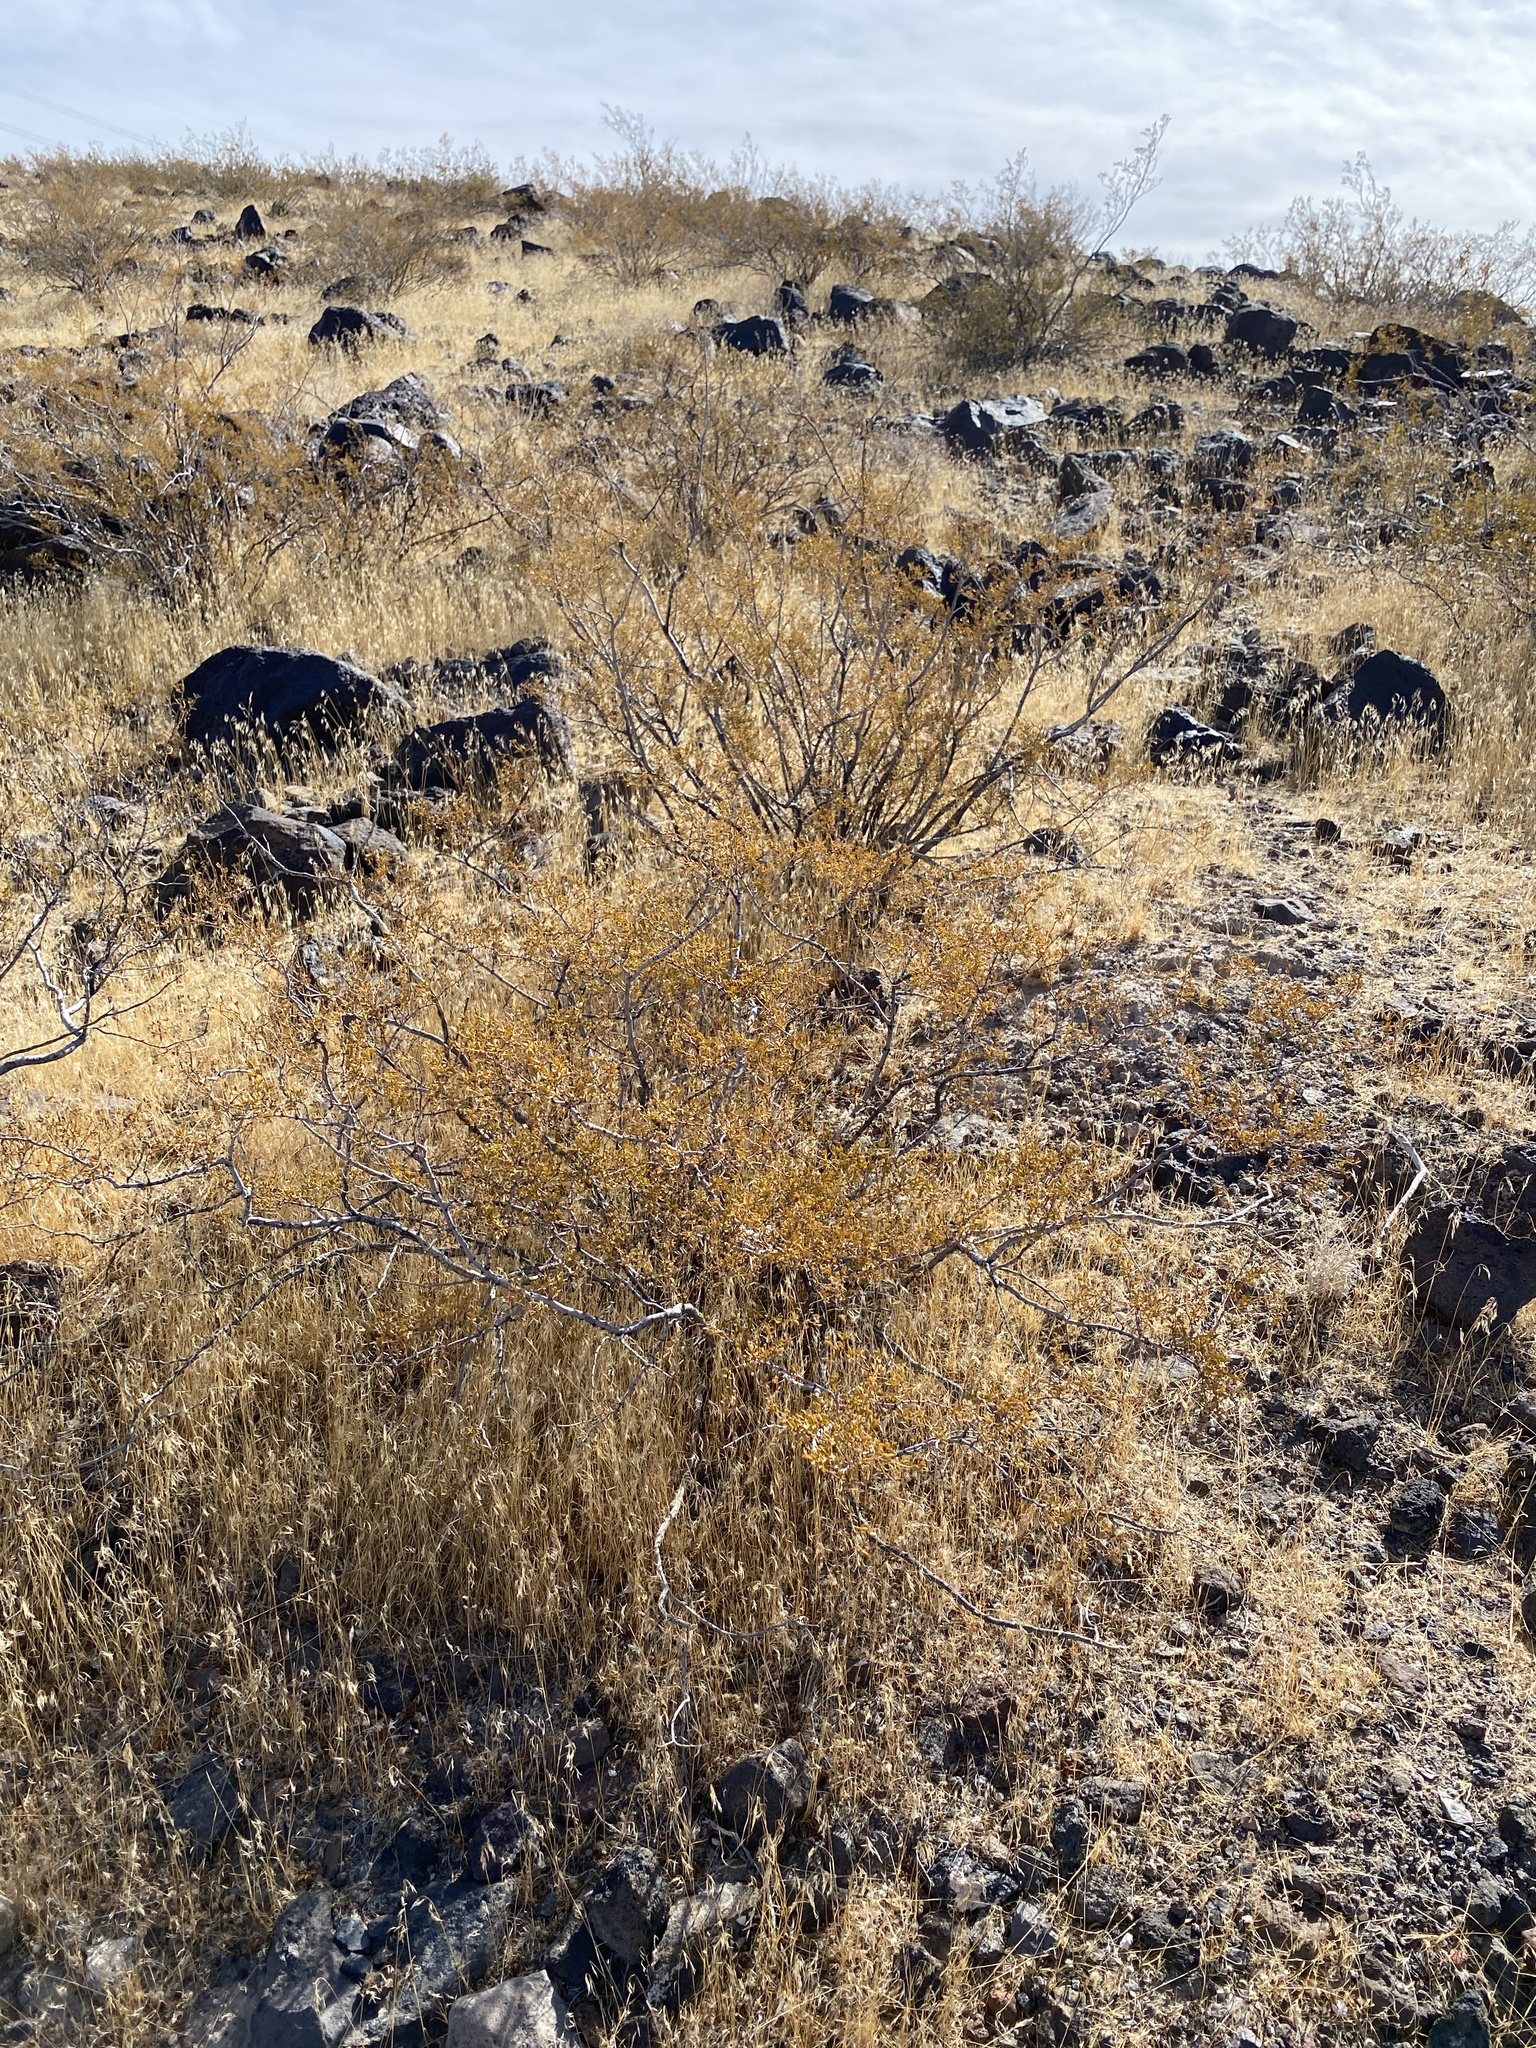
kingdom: Plantae
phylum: Tracheophyta
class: Magnoliopsida
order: Zygophyllales
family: Zygophyllaceae
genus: Larrea
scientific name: Larrea tridentata
